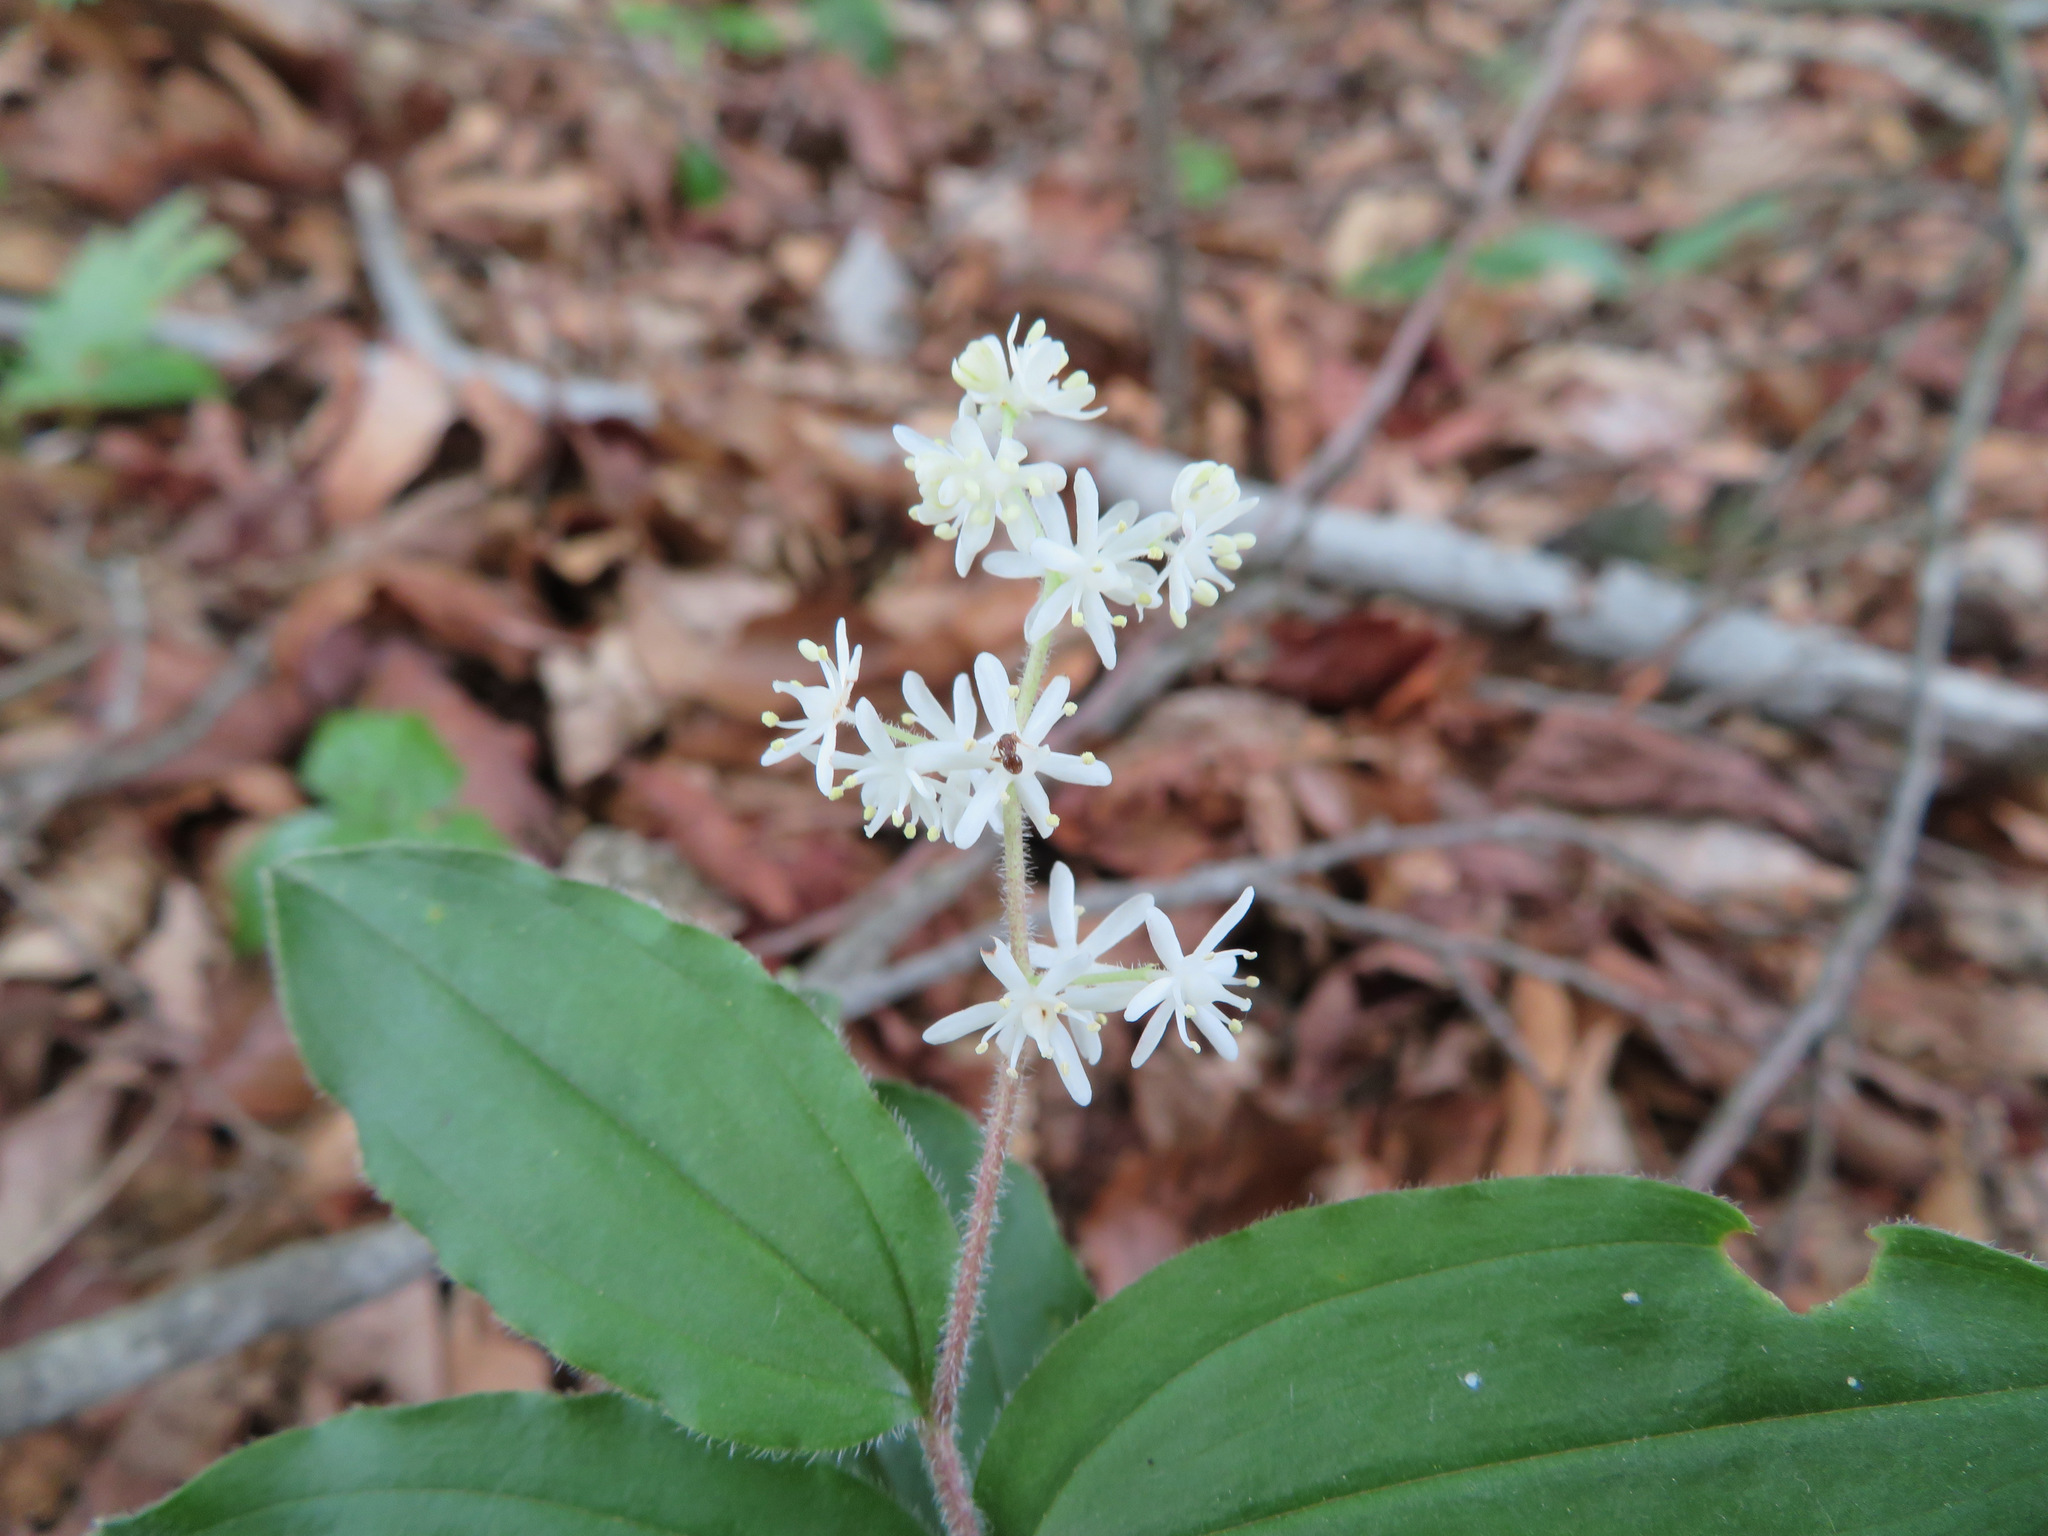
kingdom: Plantae
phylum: Tracheophyta
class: Liliopsida
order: Asparagales
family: Asparagaceae
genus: Maianthemum
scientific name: Maianthemum japonicum
